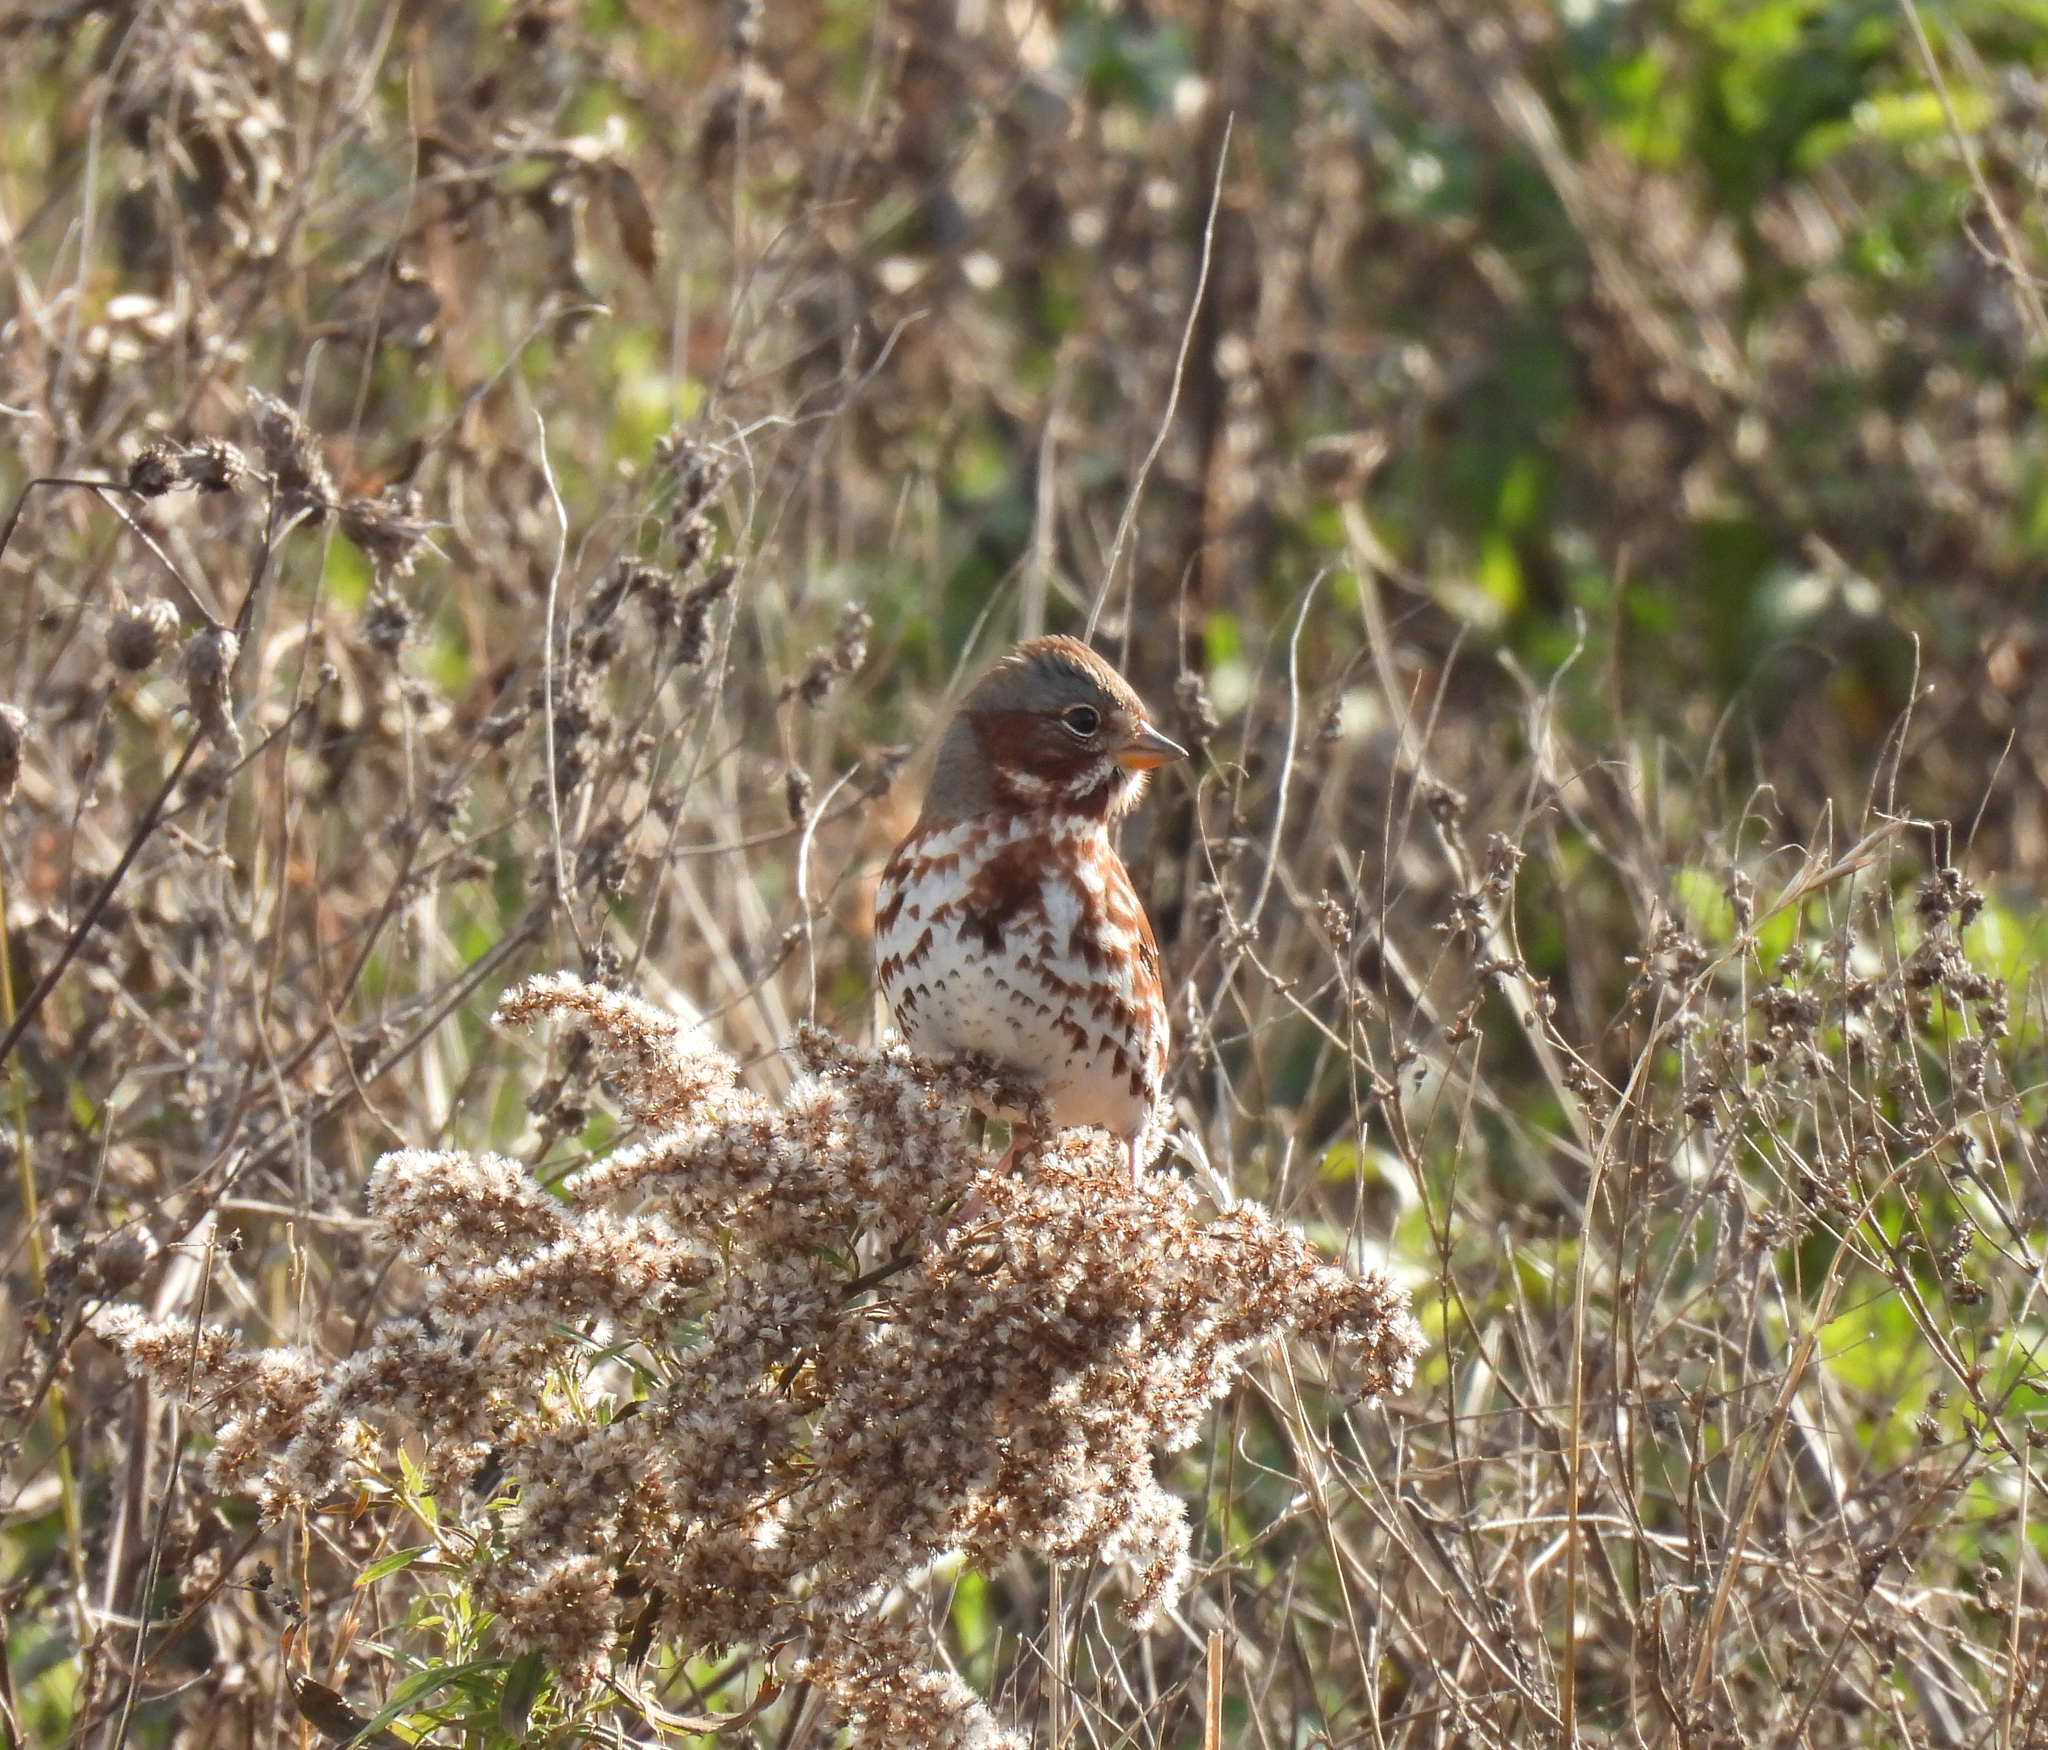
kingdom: Animalia
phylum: Chordata
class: Aves
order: Passeriformes
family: Passerellidae
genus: Passerella
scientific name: Passerella iliaca
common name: Fox sparrow
